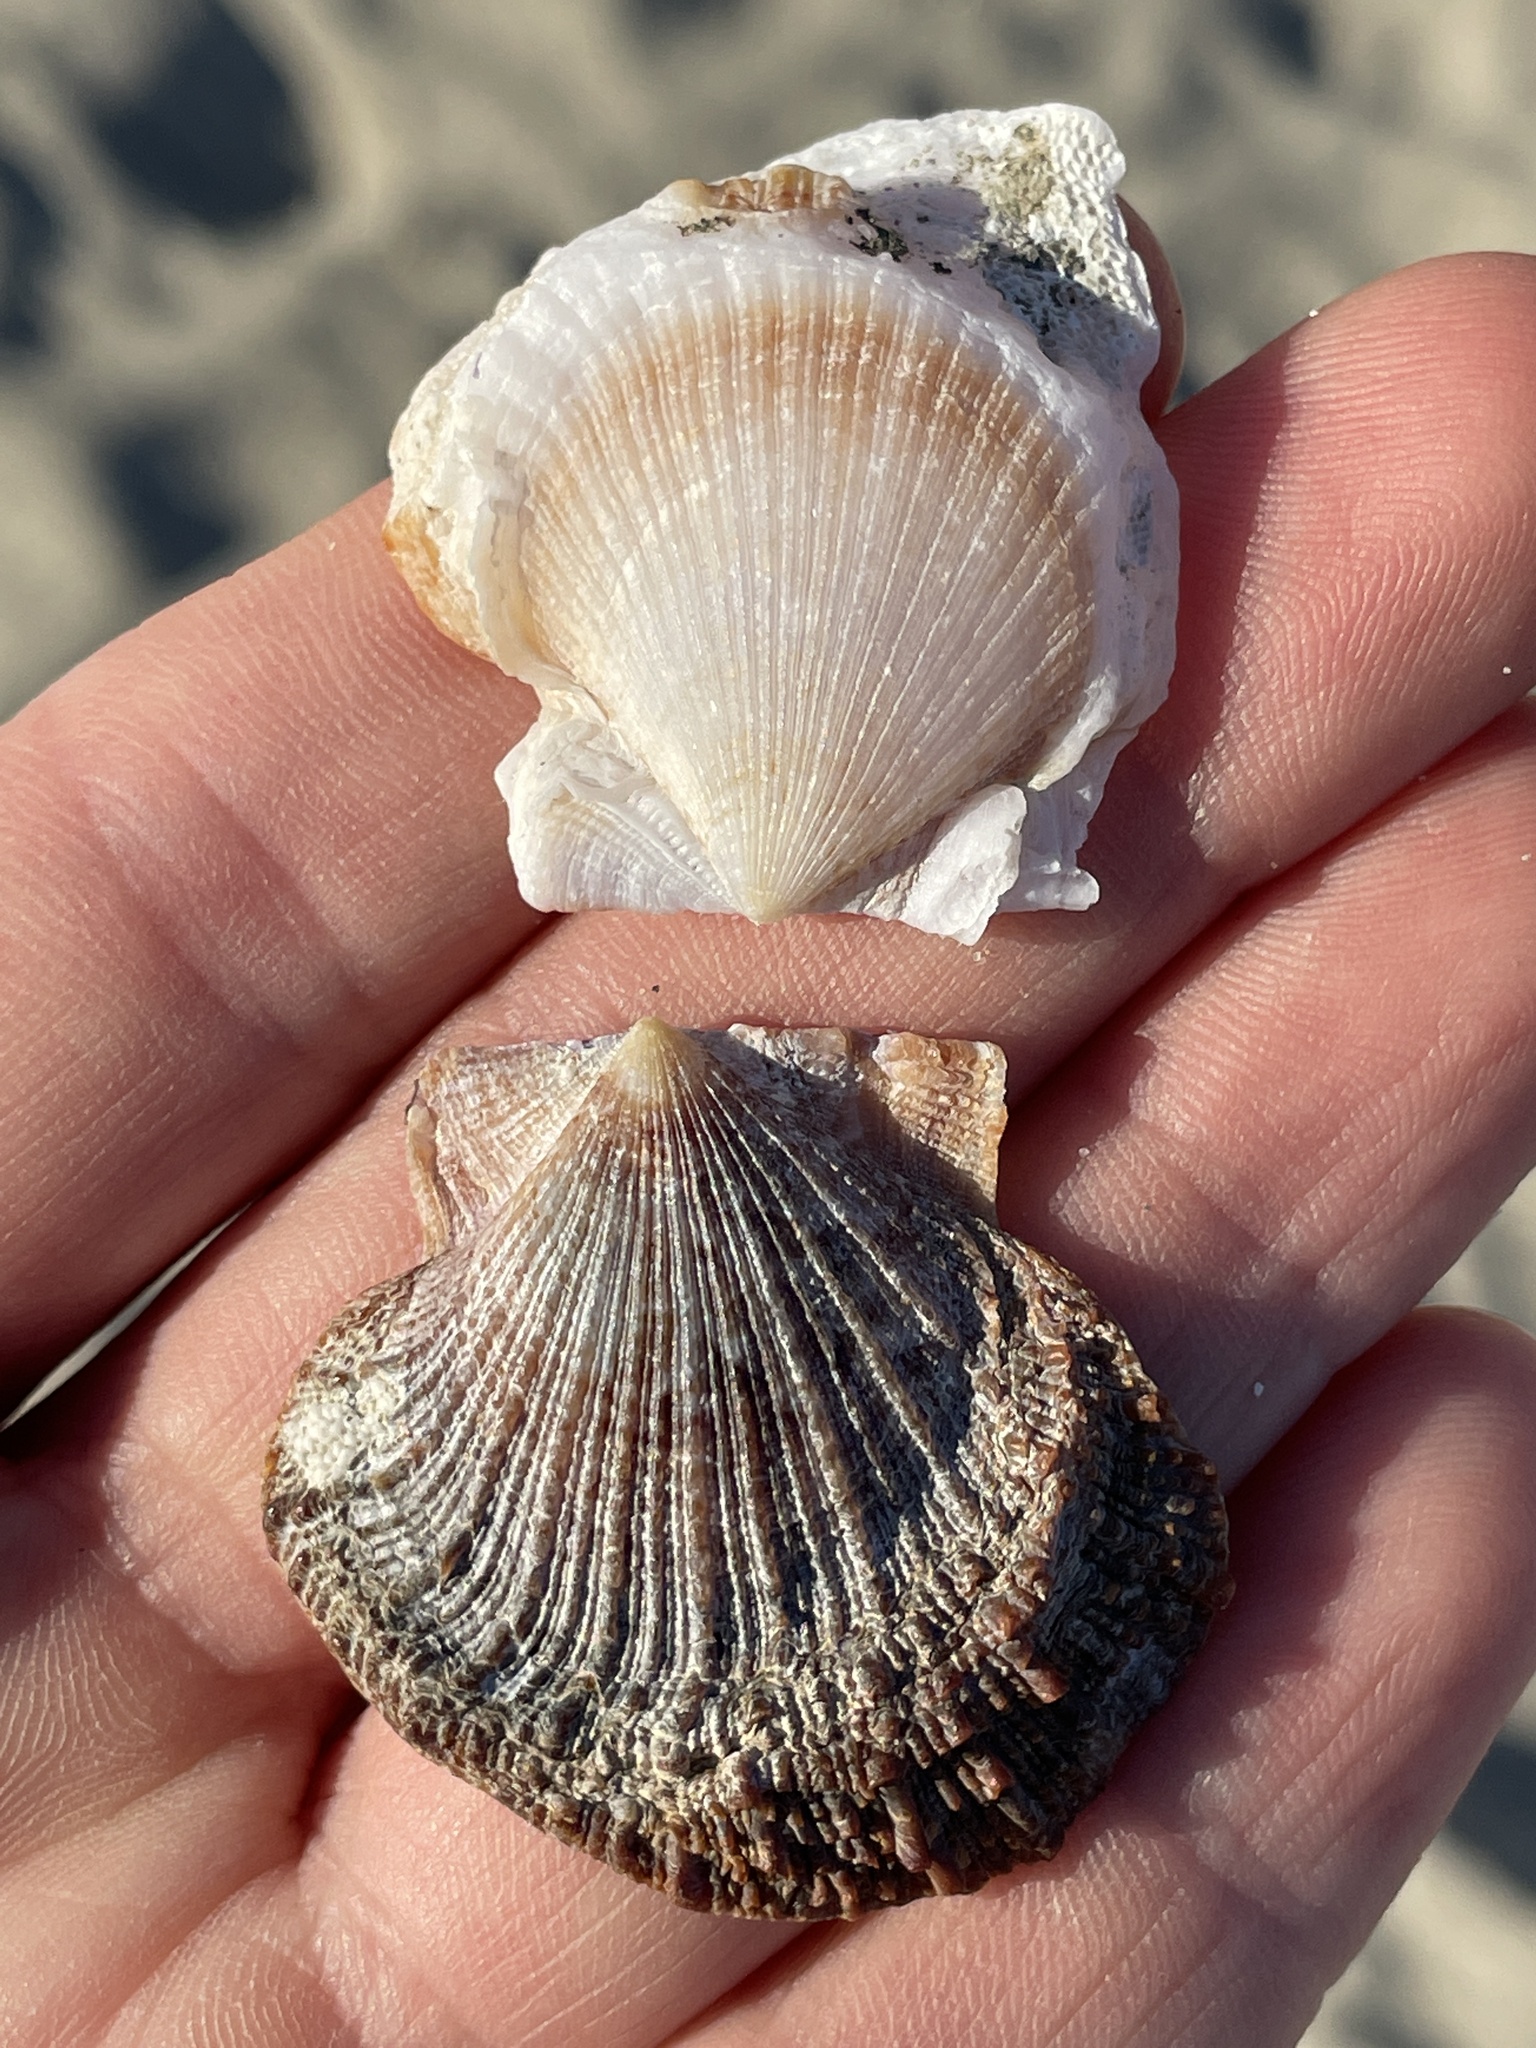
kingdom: Animalia
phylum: Mollusca
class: Bivalvia
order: Pectinida
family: Pectinidae
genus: Crassadoma
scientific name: Crassadoma gigantea
